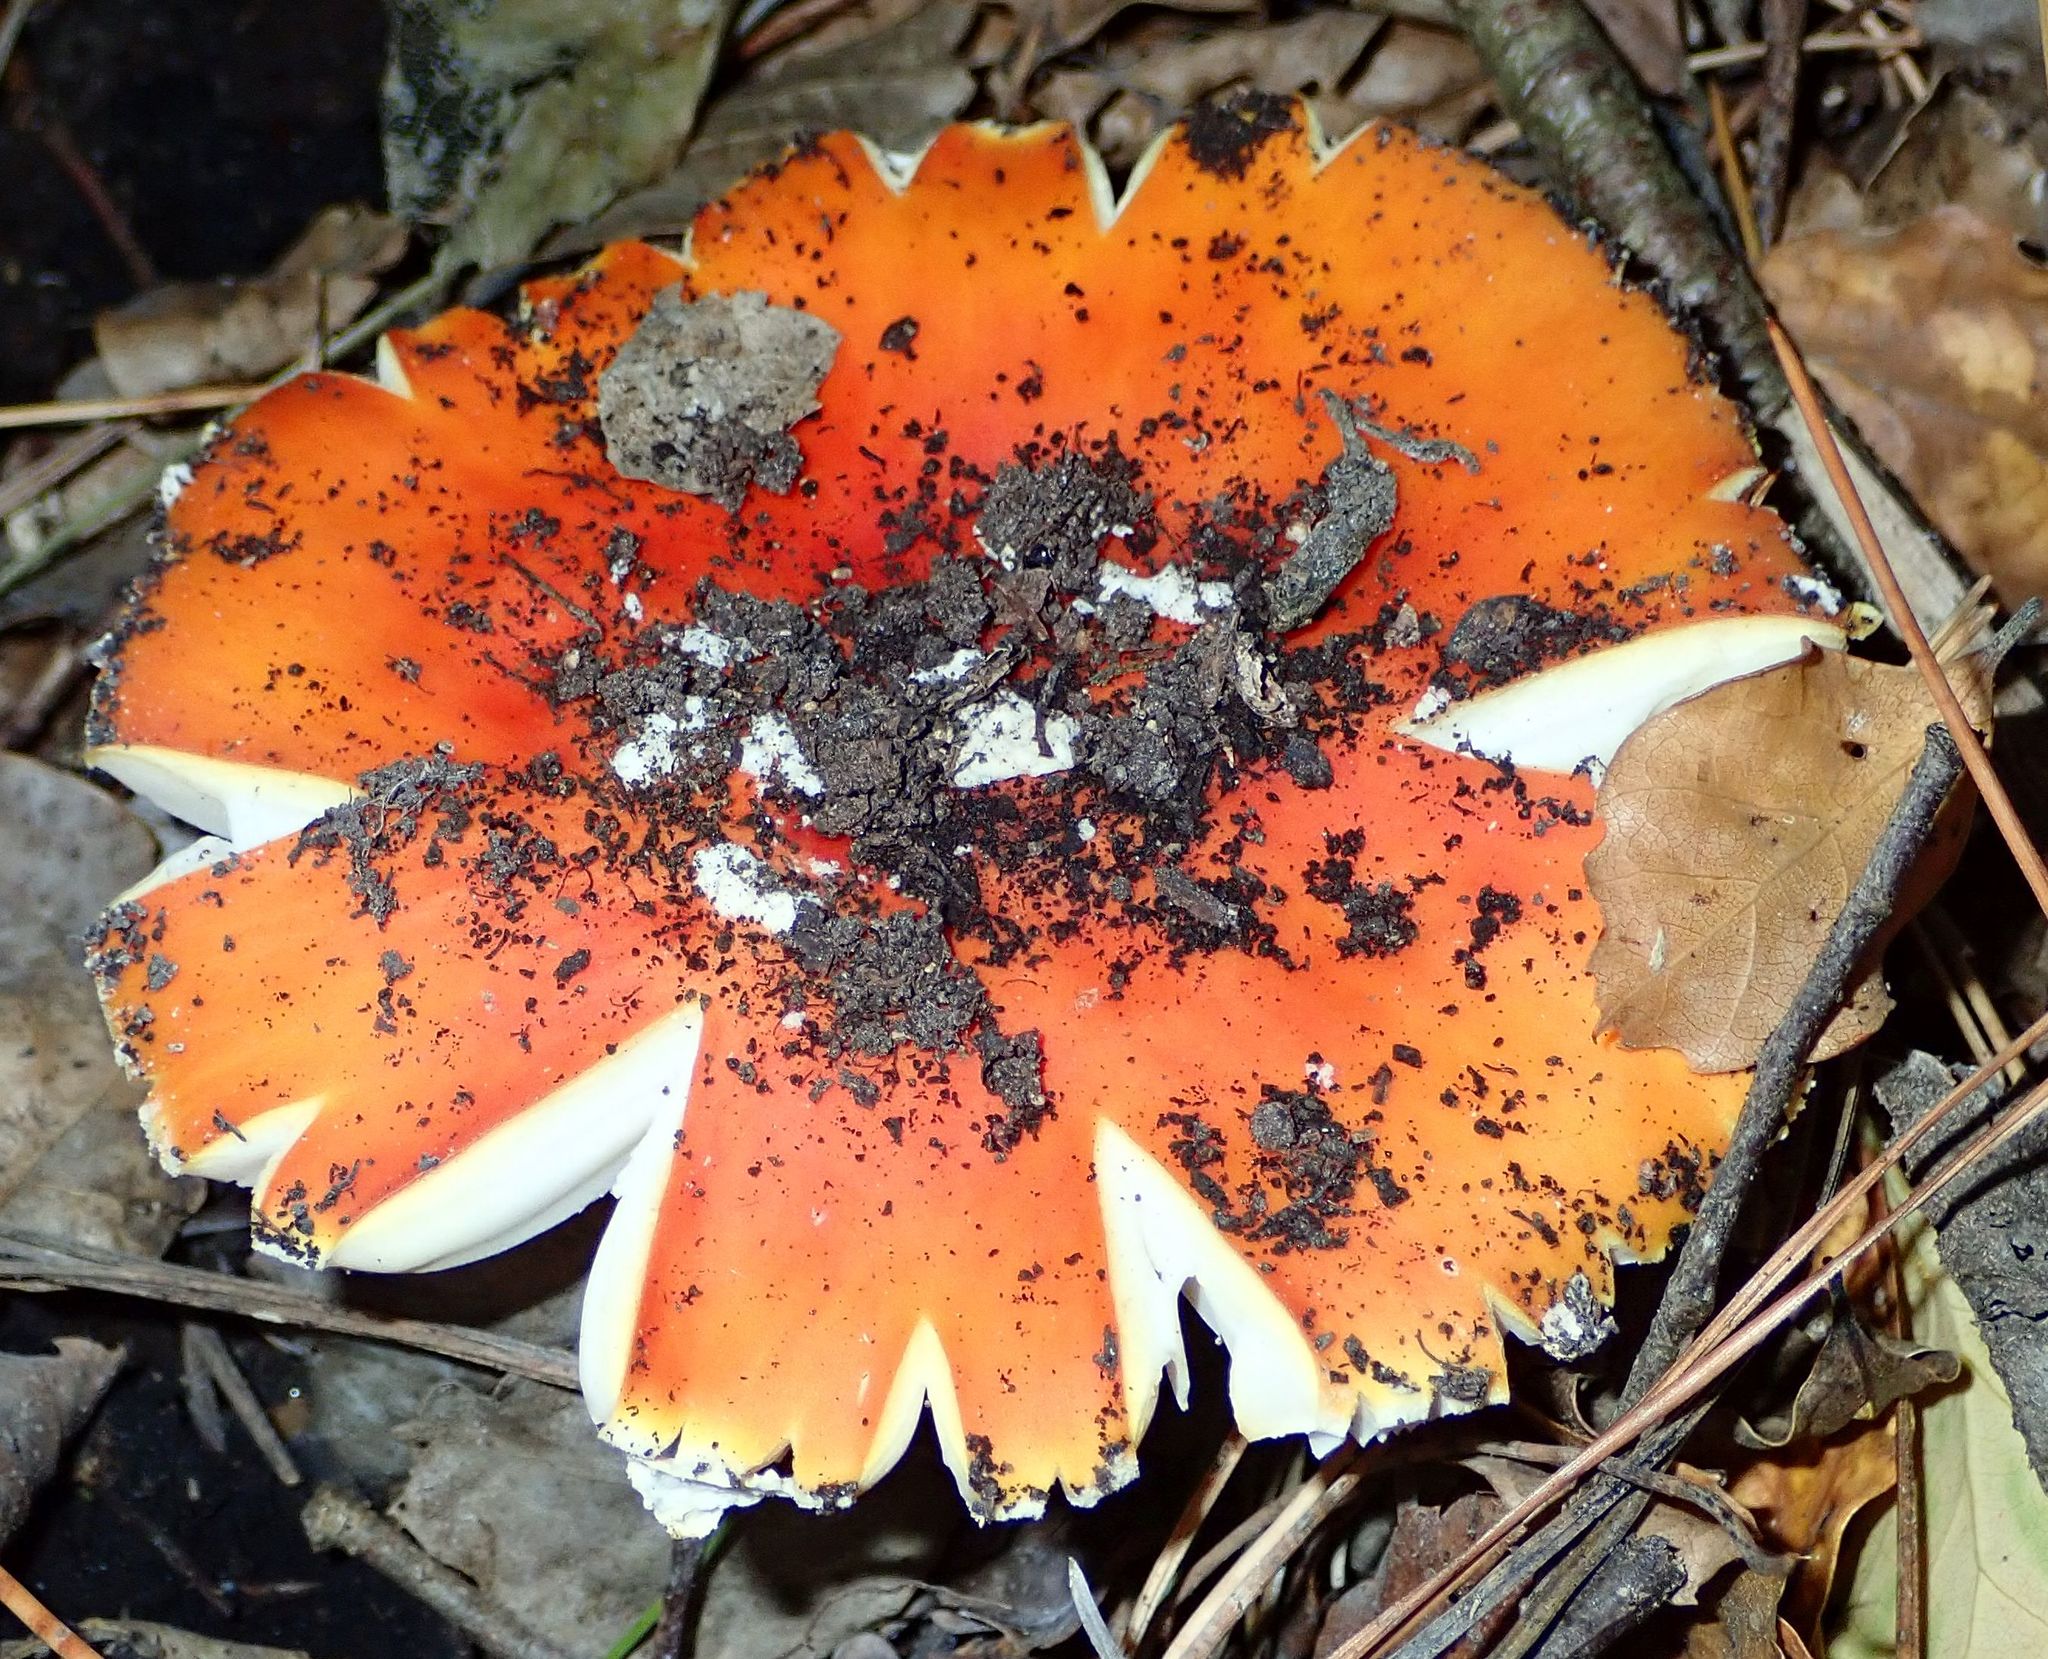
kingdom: Fungi
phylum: Basidiomycota
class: Agaricomycetes
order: Agaricales
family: Amanitaceae
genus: Amanita
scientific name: Amanita muscaria
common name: Fly agaric
